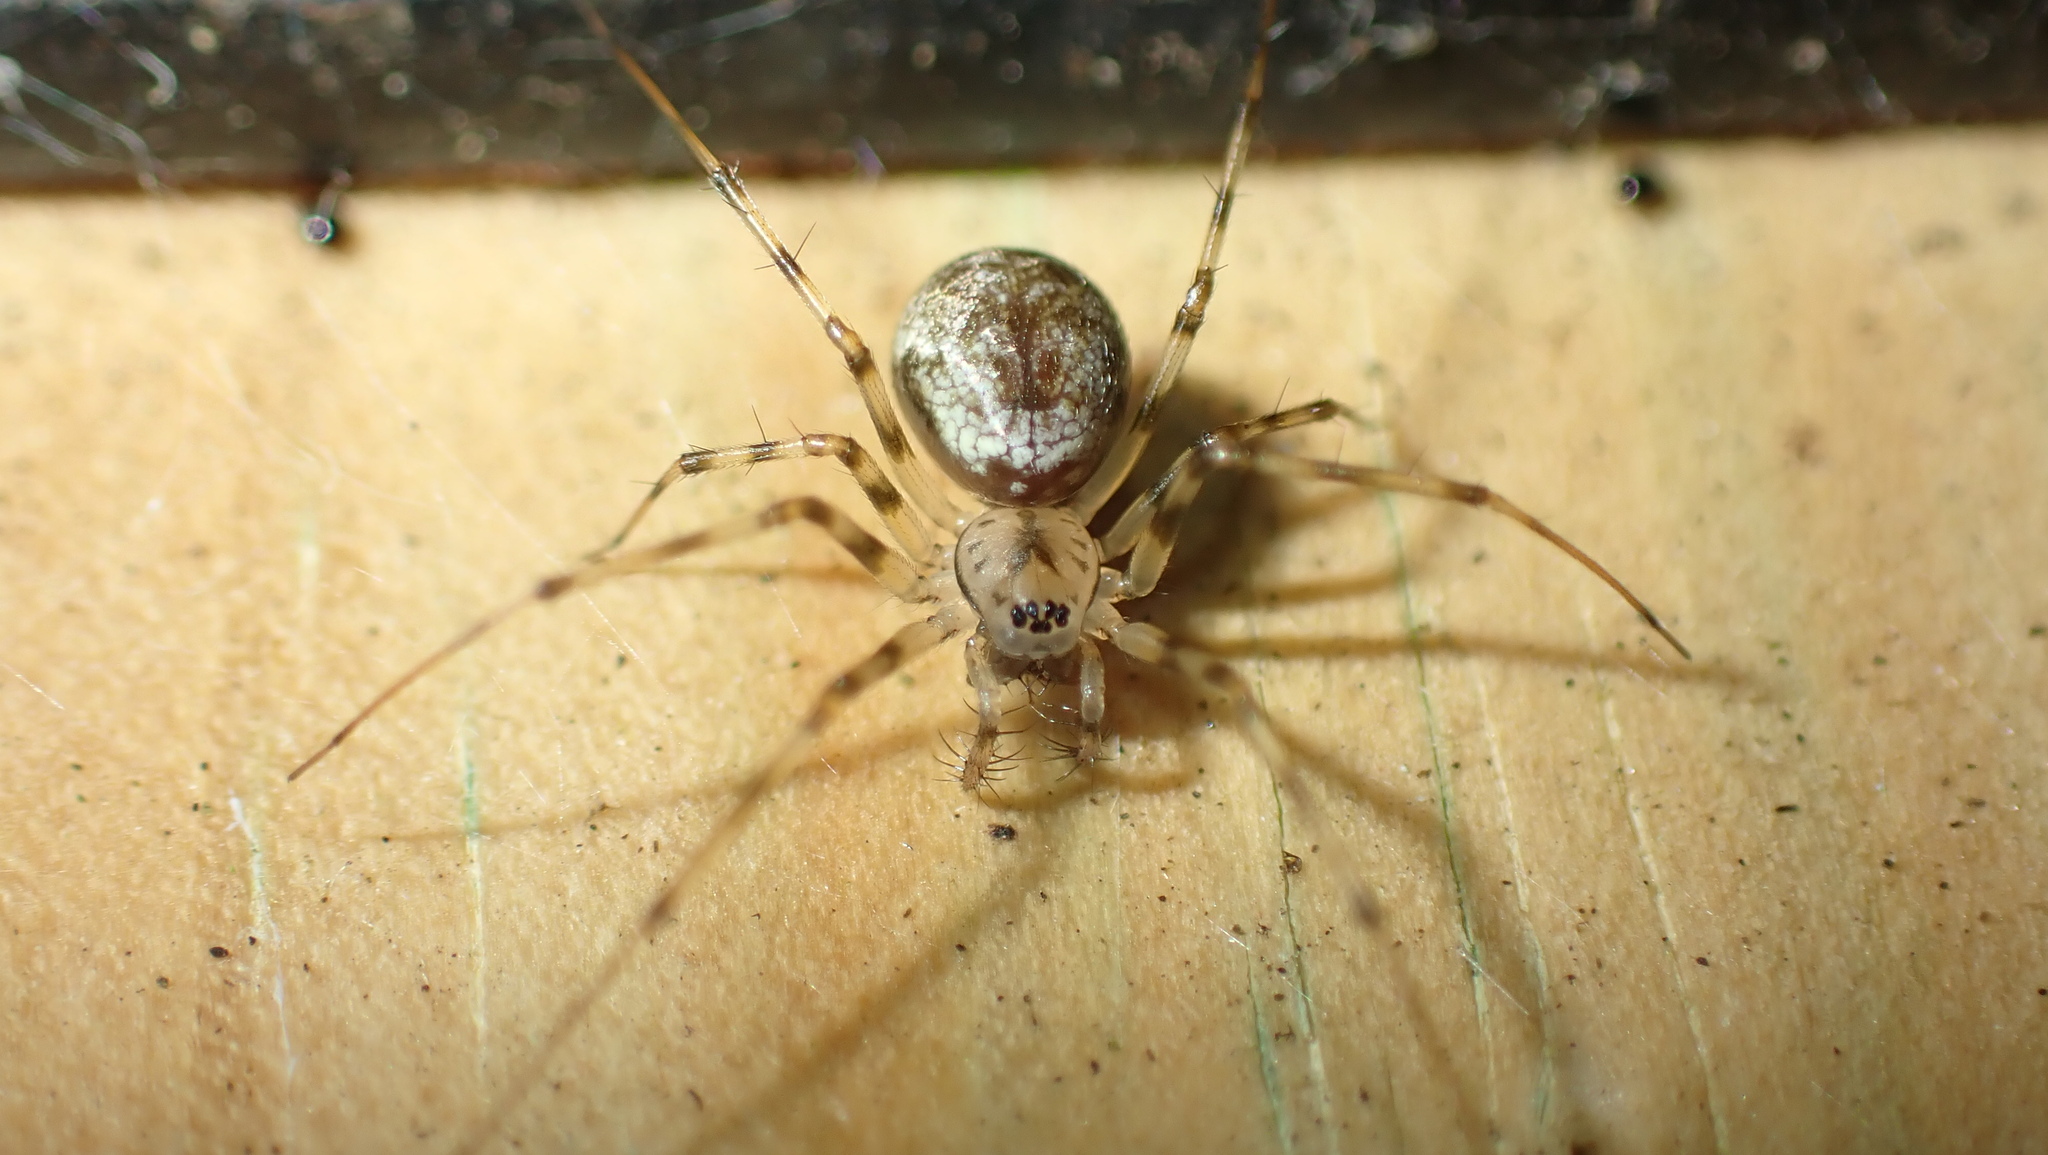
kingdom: Animalia
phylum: Arthropoda
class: Arachnida
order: Araneae
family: Linyphiidae
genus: Drapetisca
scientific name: Drapetisca socialis
